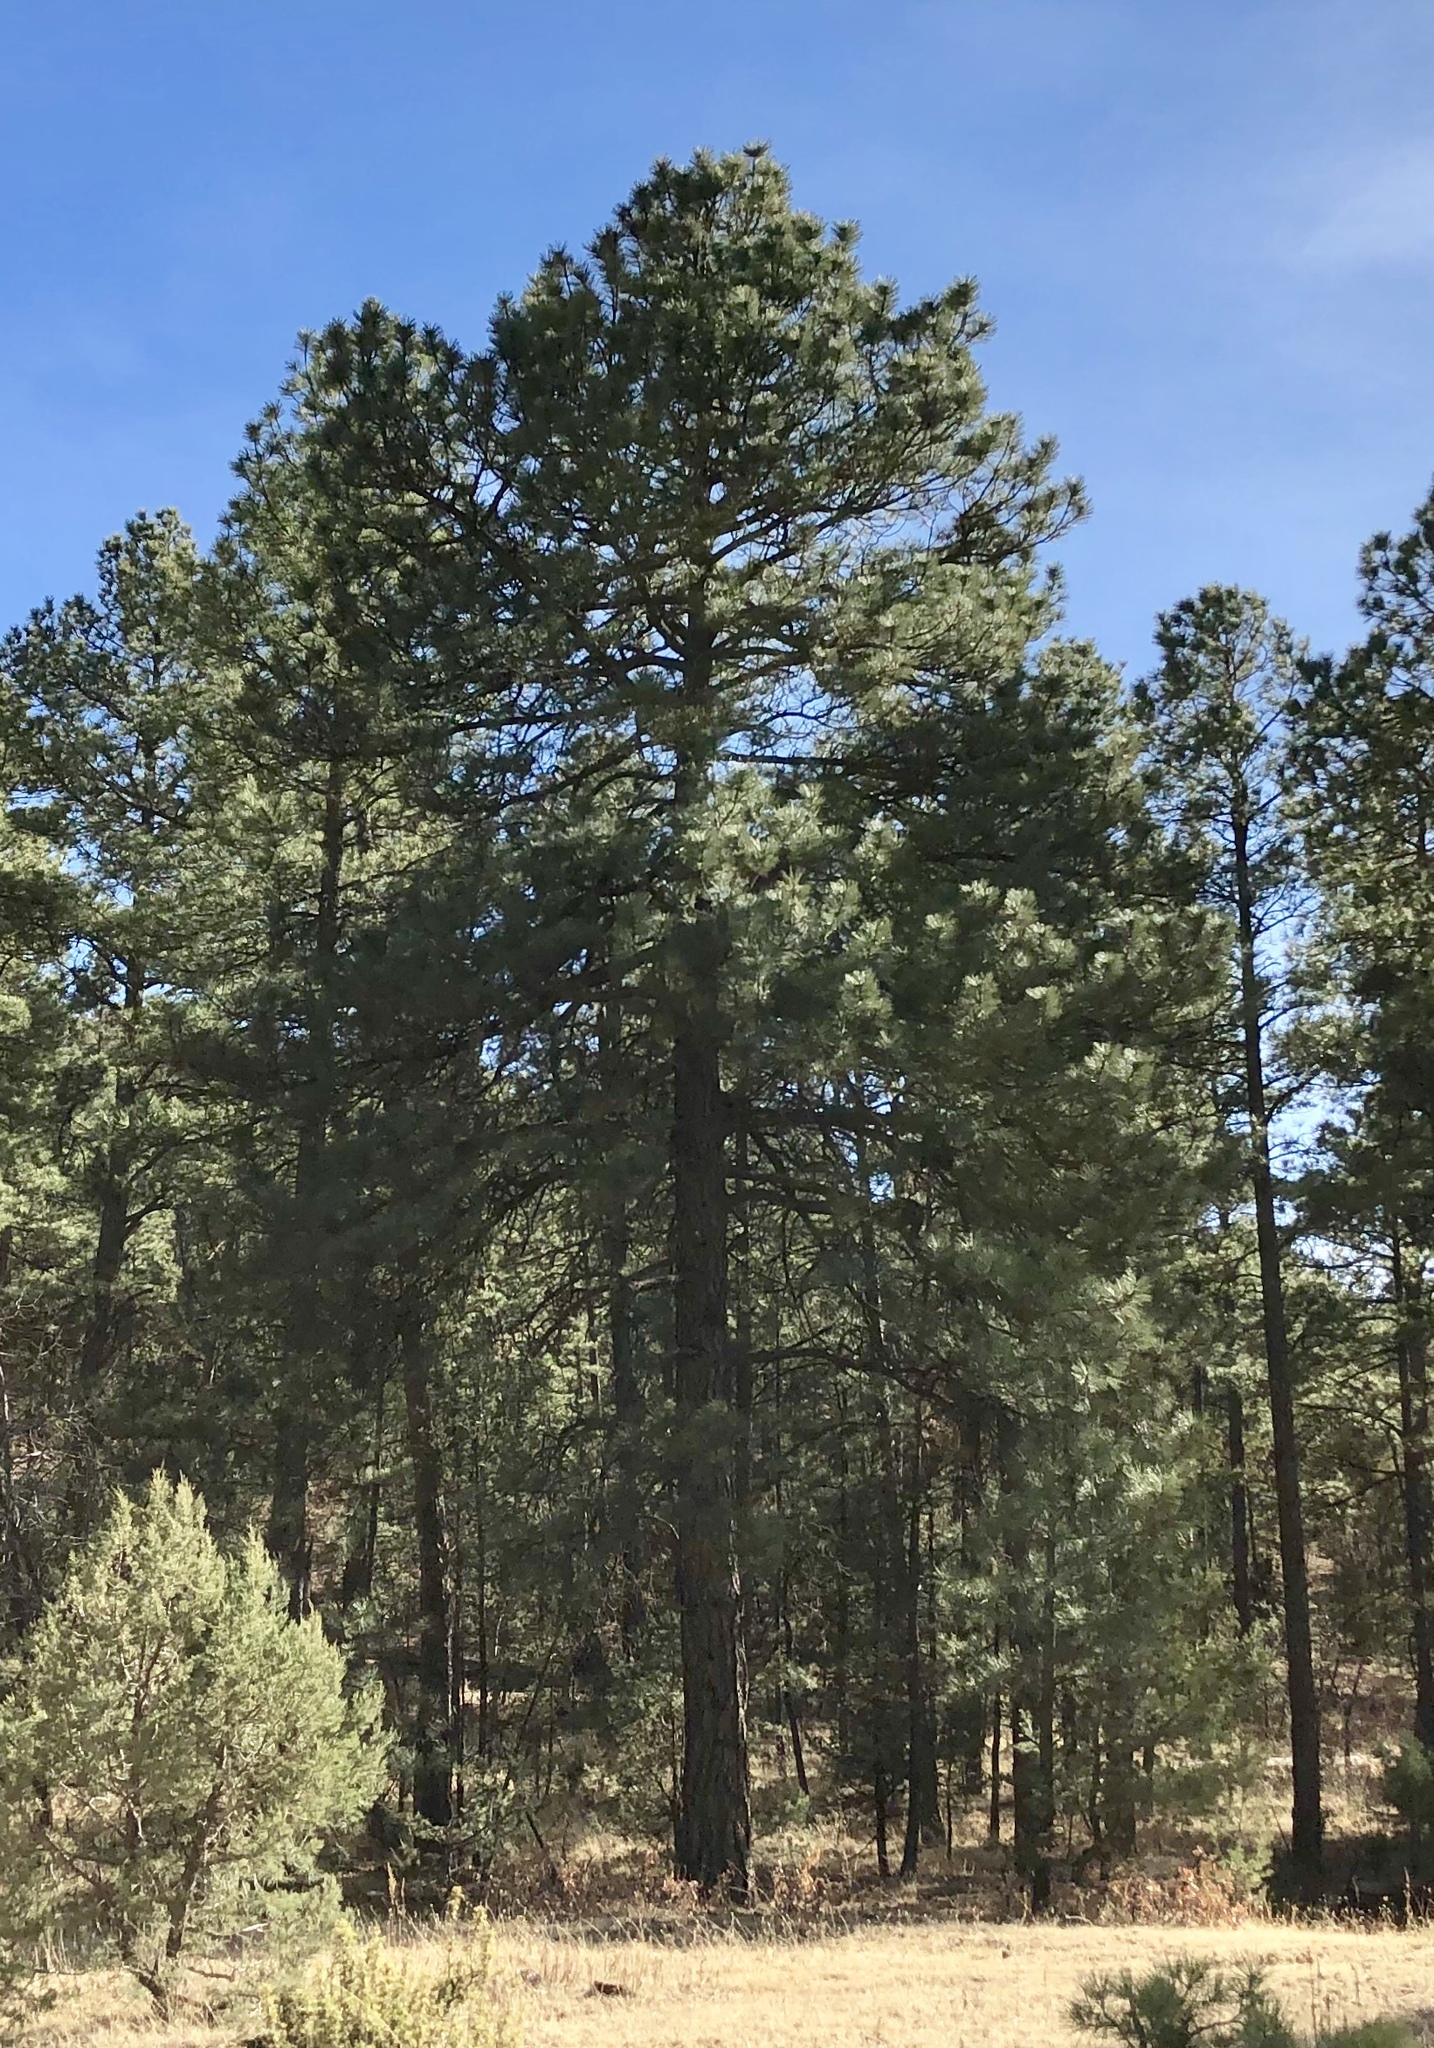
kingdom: Plantae
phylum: Tracheophyta
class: Pinopsida
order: Pinales
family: Pinaceae
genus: Pinus
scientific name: Pinus ponderosa
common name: Western yellow-pine
